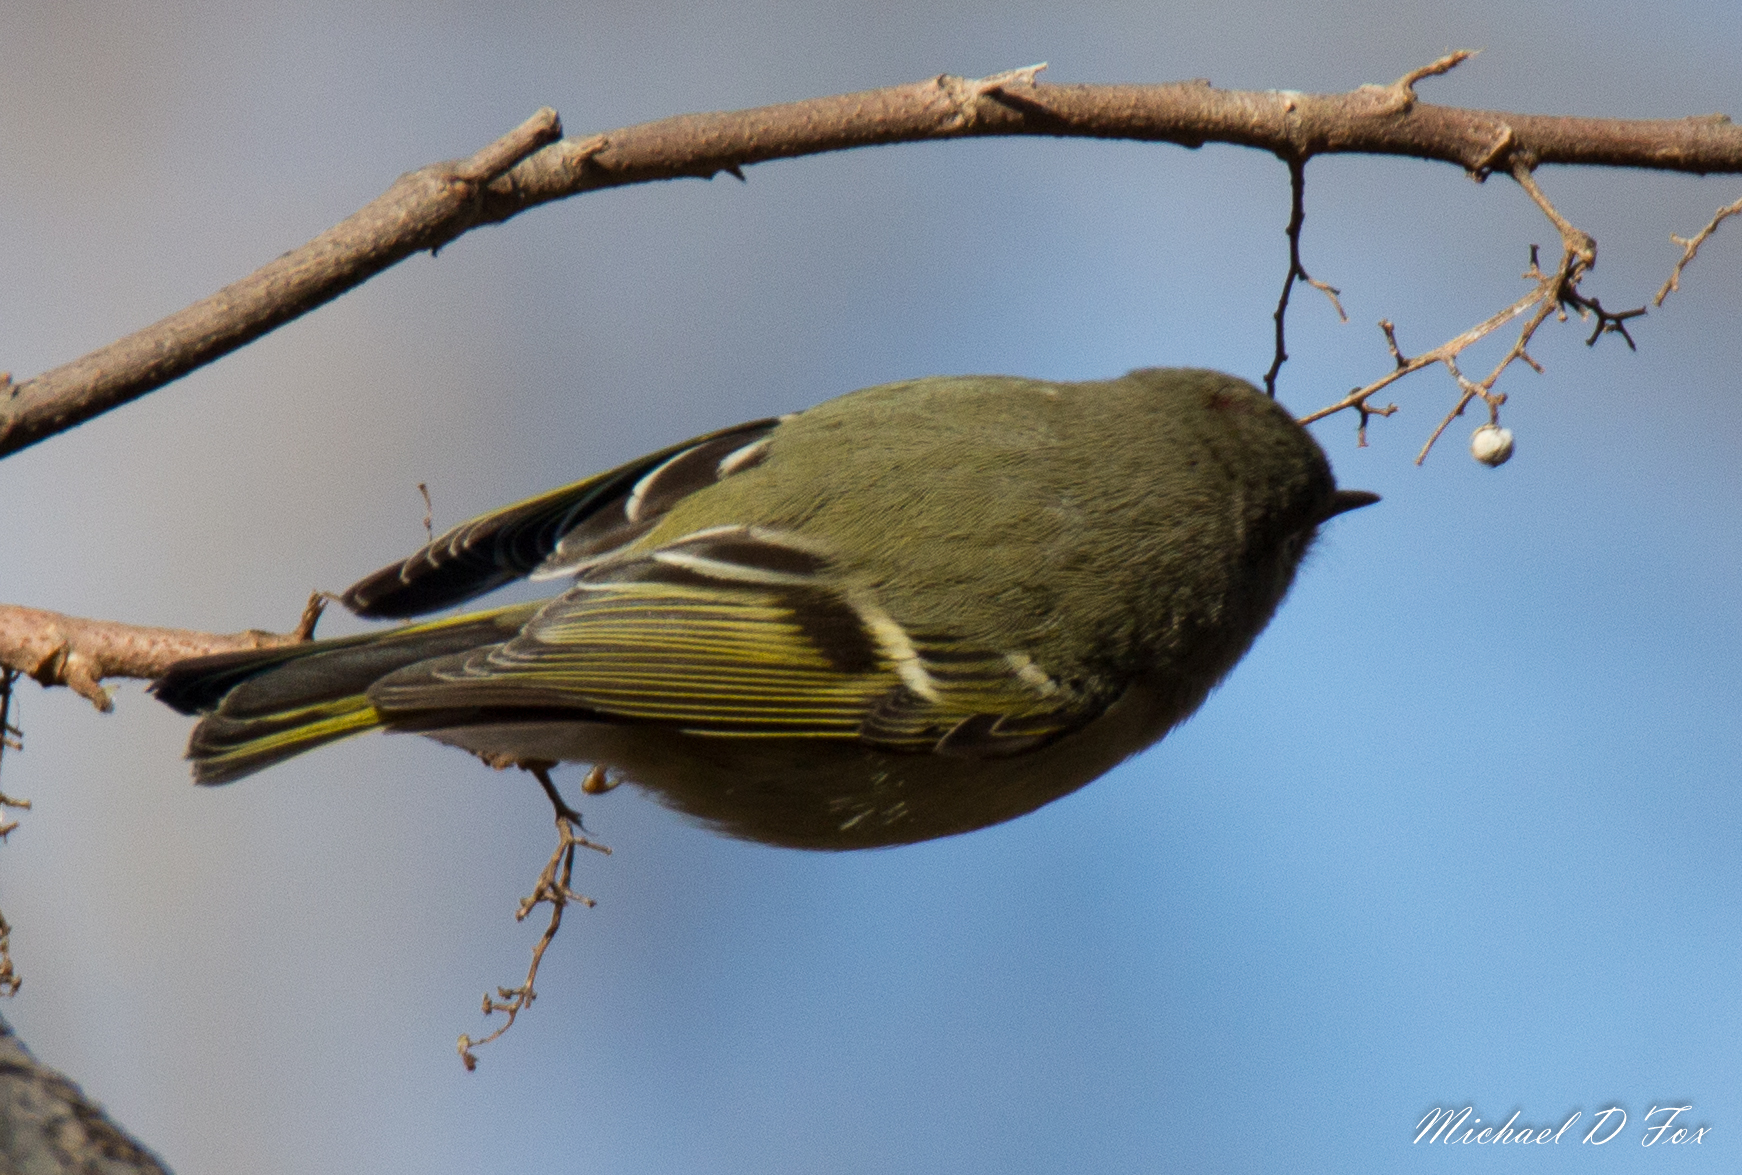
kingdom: Animalia
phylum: Chordata
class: Aves
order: Passeriformes
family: Regulidae
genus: Regulus
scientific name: Regulus calendula
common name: Ruby-crowned kinglet
